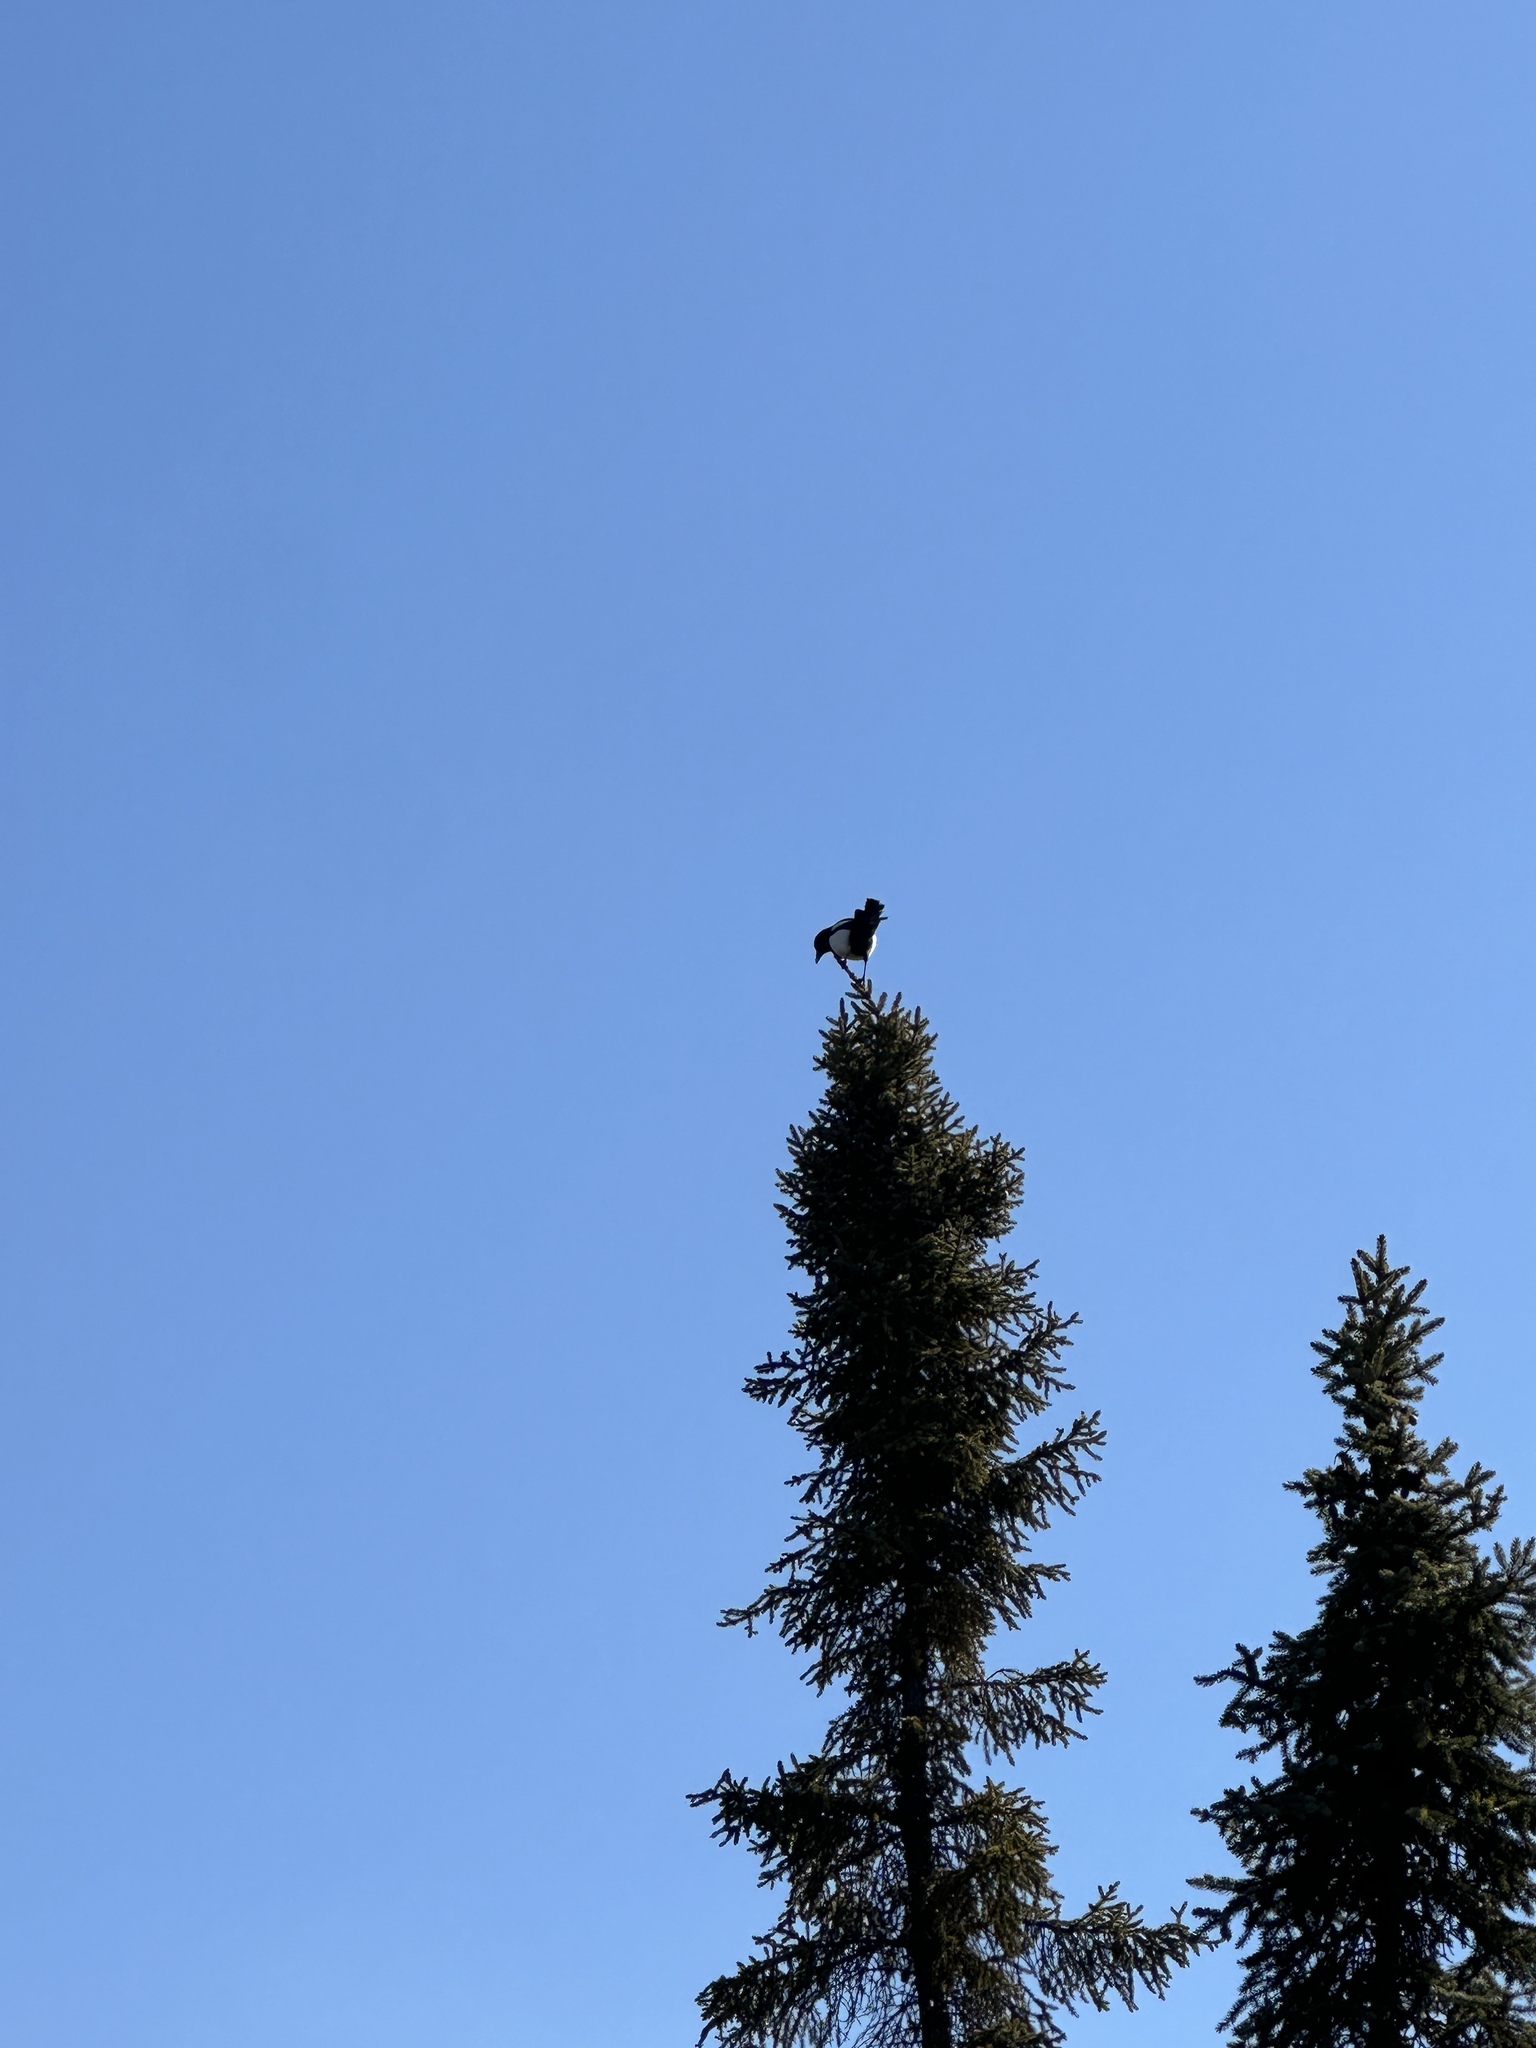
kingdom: Animalia
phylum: Chordata
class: Aves
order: Passeriformes
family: Corvidae
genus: Pica
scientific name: Pica hudsonia
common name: Black-billed magpie
